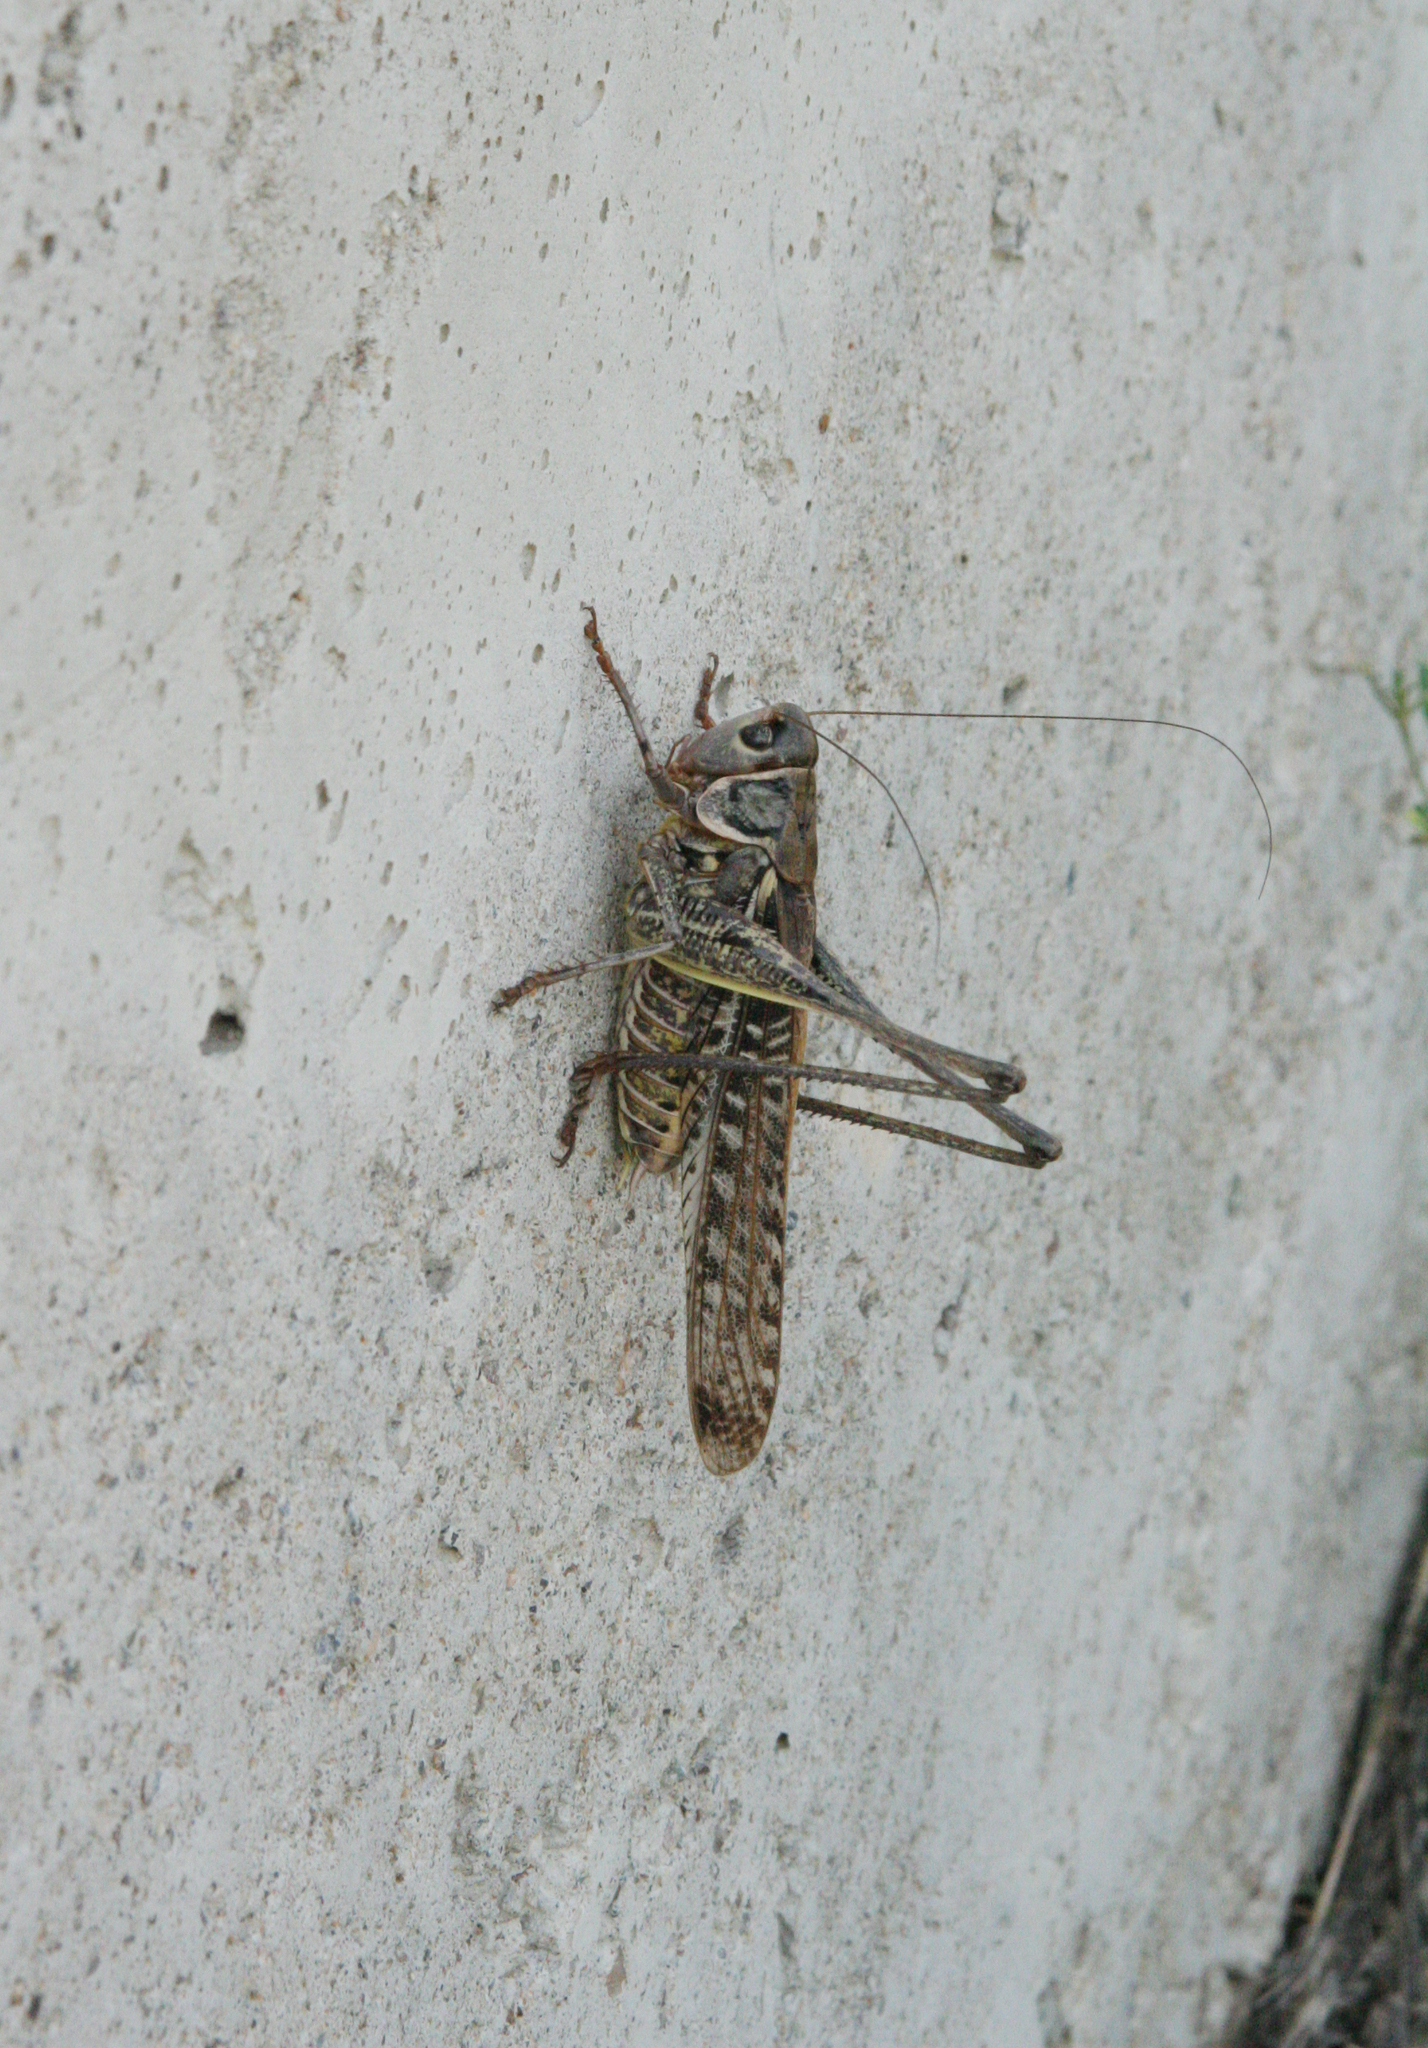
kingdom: Animalia
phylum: Arthropoda
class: Insecta
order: Orthoptera
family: Tettigoniidae
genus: Decticus
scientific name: Decticus albifrons
